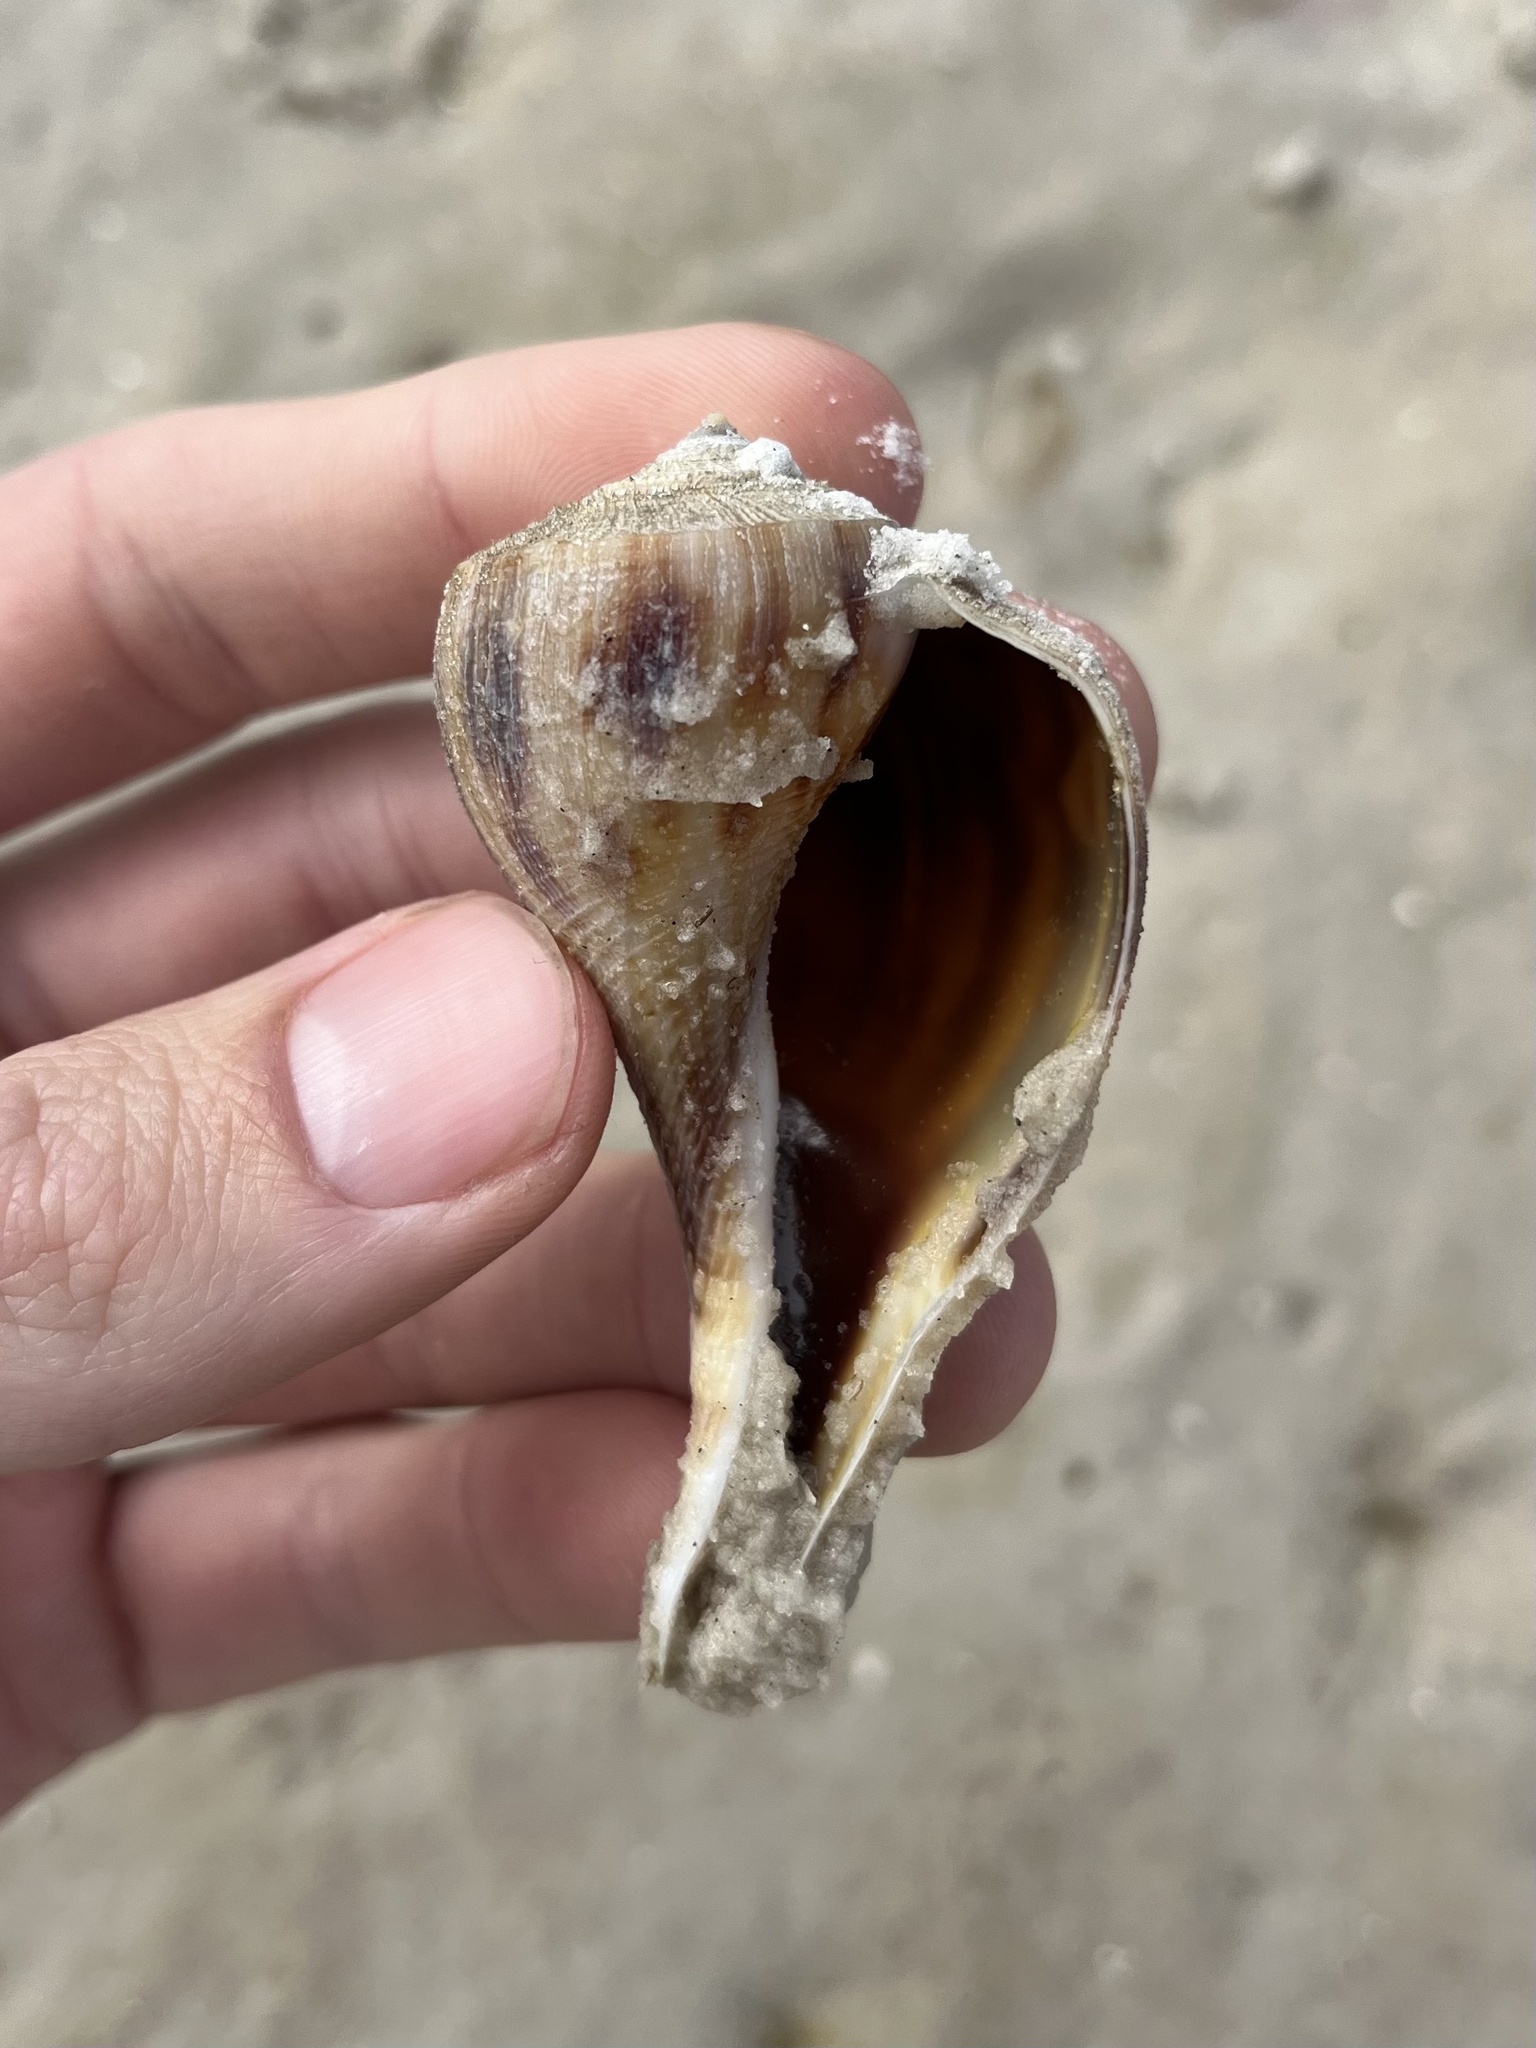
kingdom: Animalia
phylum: Mollusca
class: Gastropoda
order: Neogastropoda
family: Busyconidae
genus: Fulguropsis
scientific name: Fulguropsis pyruloides
